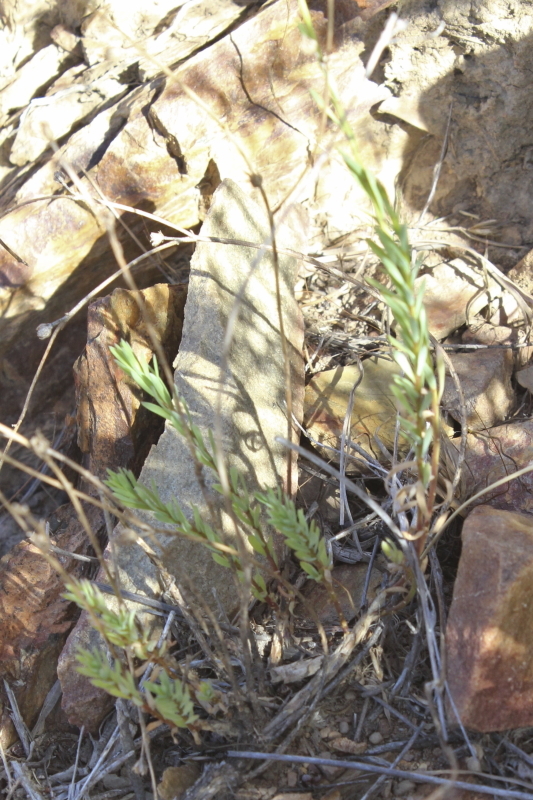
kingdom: Plantae
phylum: Tracheophyta
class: Magnoliopsida
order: Malpighiales
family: Linaceae
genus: Linum
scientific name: Linum africanum
